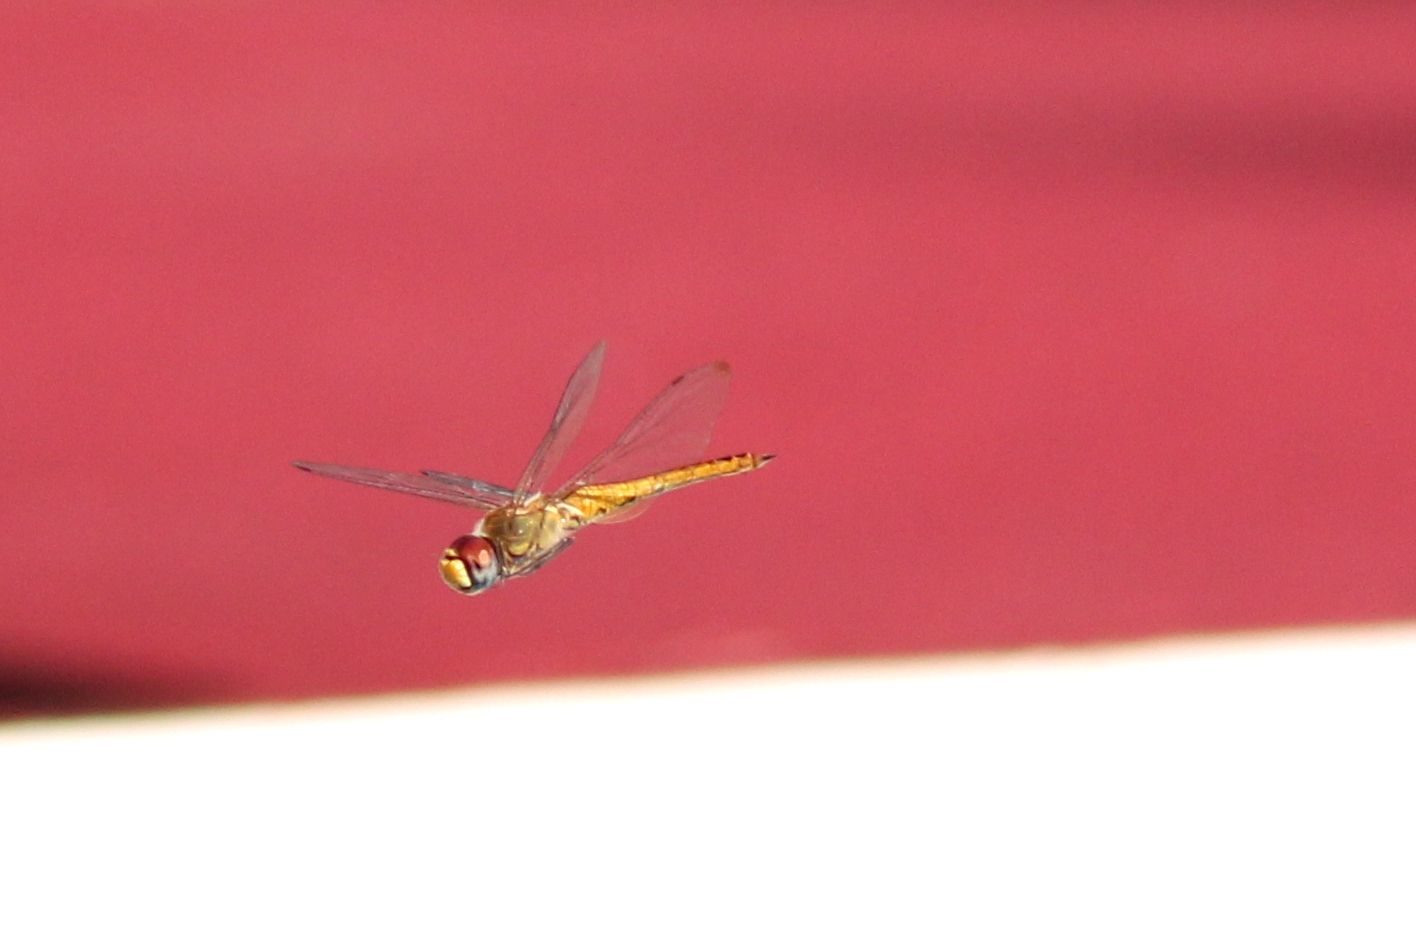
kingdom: Animalia
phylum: Arthropoda
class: Insecta
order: Odonata
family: Libellulidae
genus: Pantala
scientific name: Pantala flavescens
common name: Wandering glider
